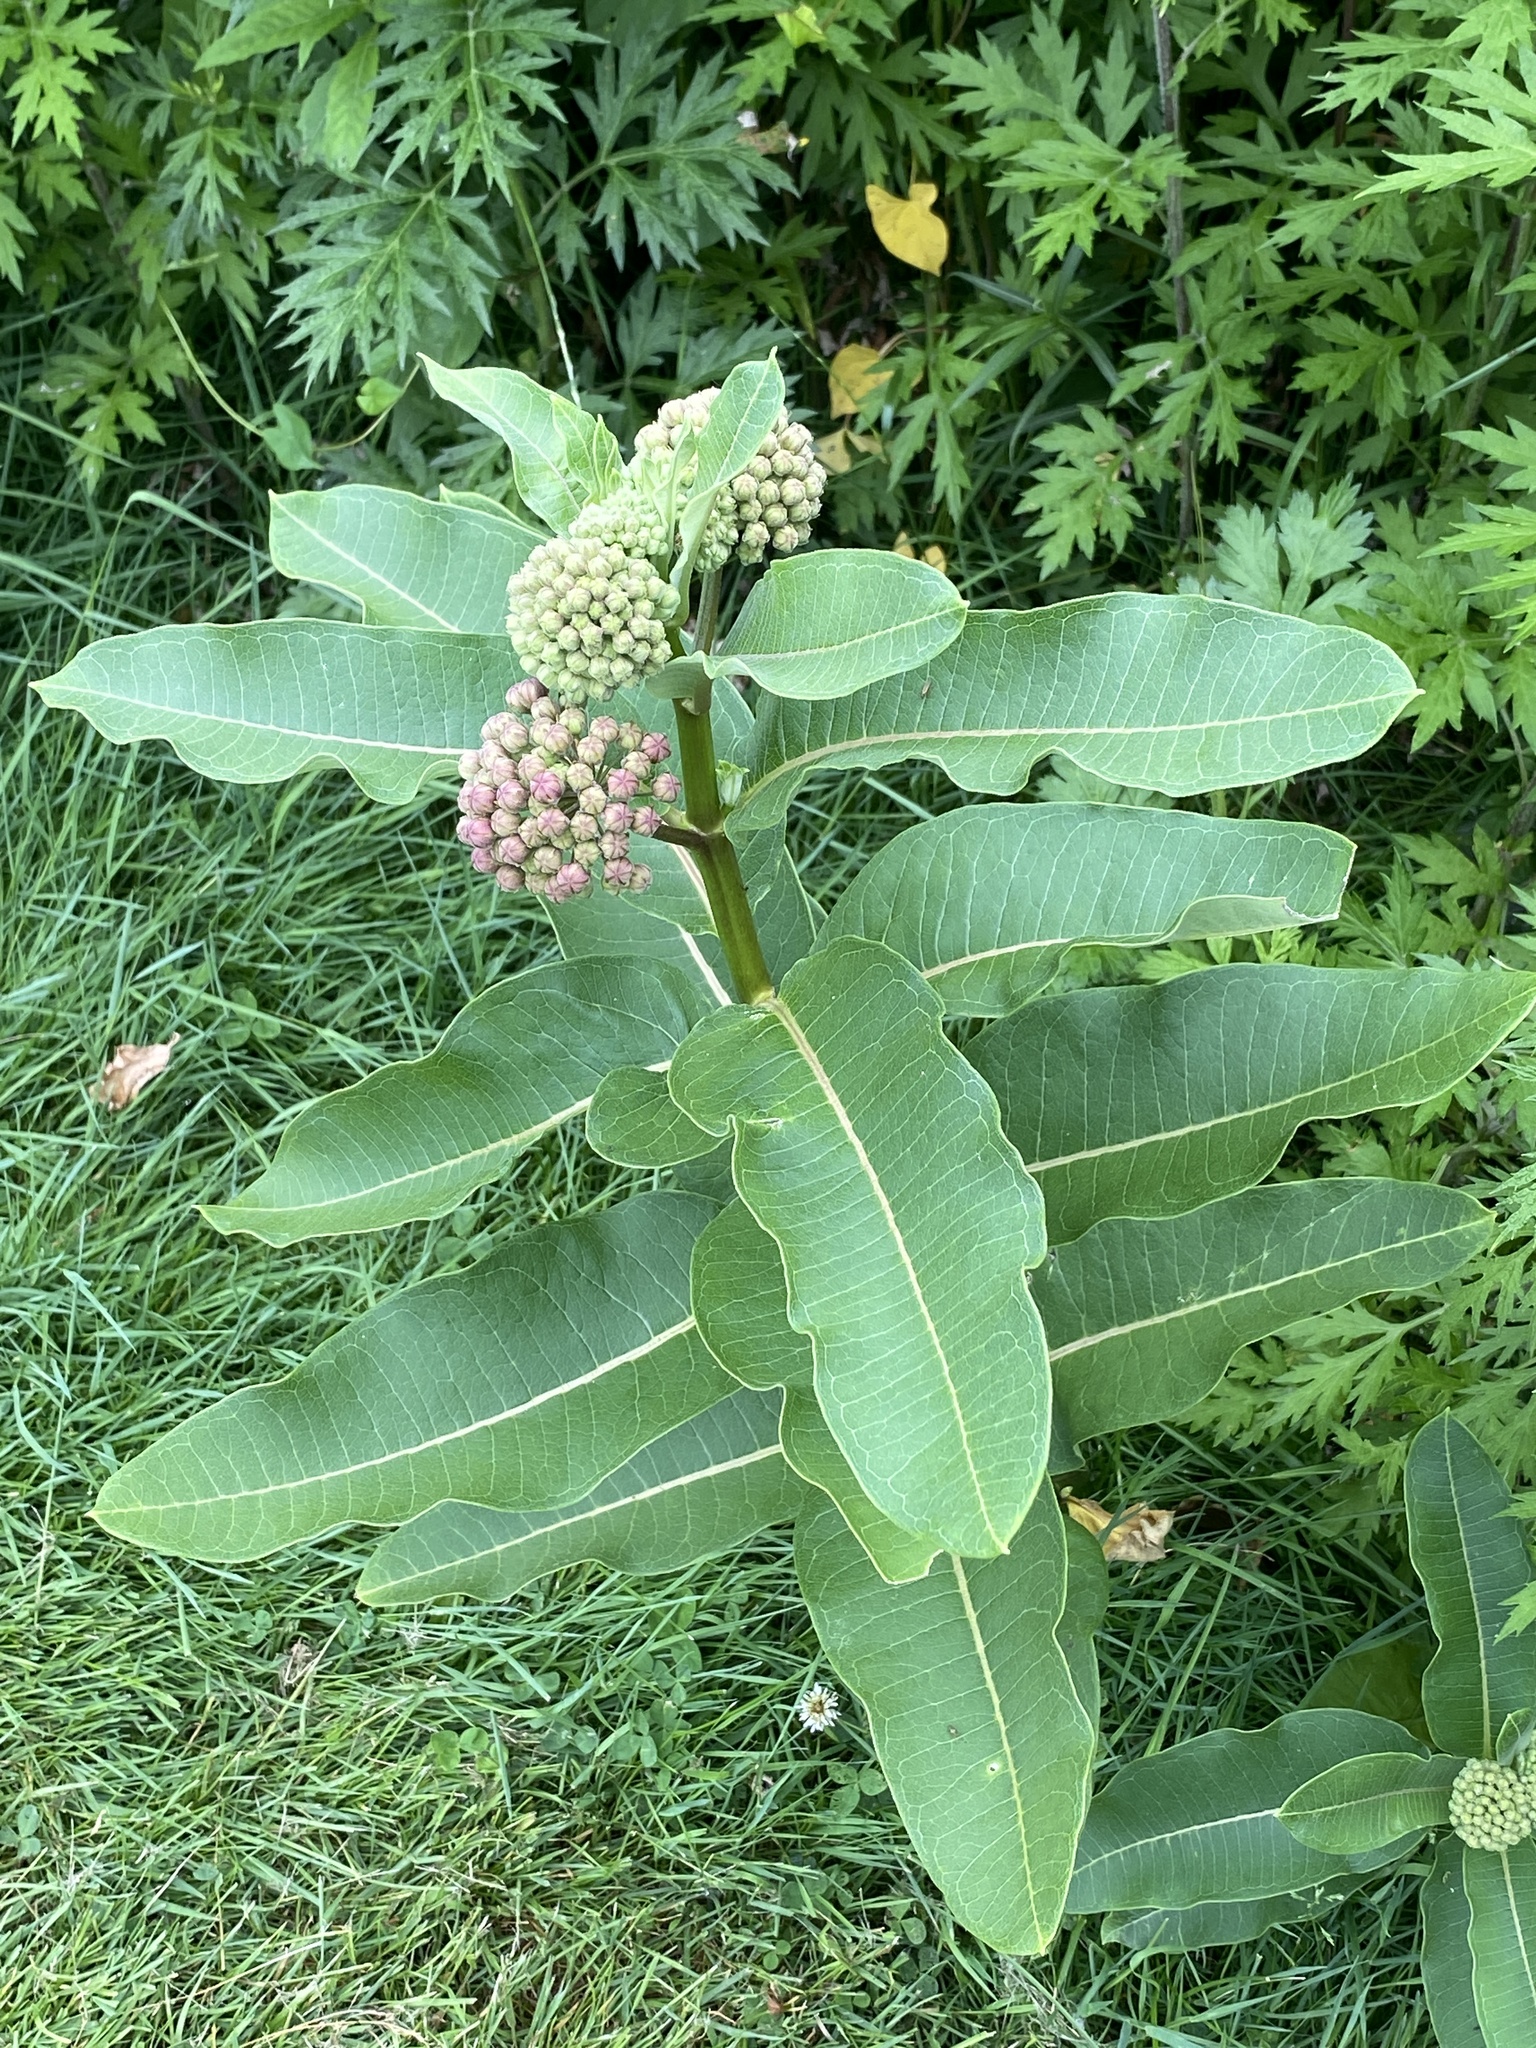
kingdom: Plantae
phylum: Tracheophyta
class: Magnoliopsida
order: Gentianales
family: Apocynaceae
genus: Asclepias
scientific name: Asclepias syriaca
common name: Common milkweed
